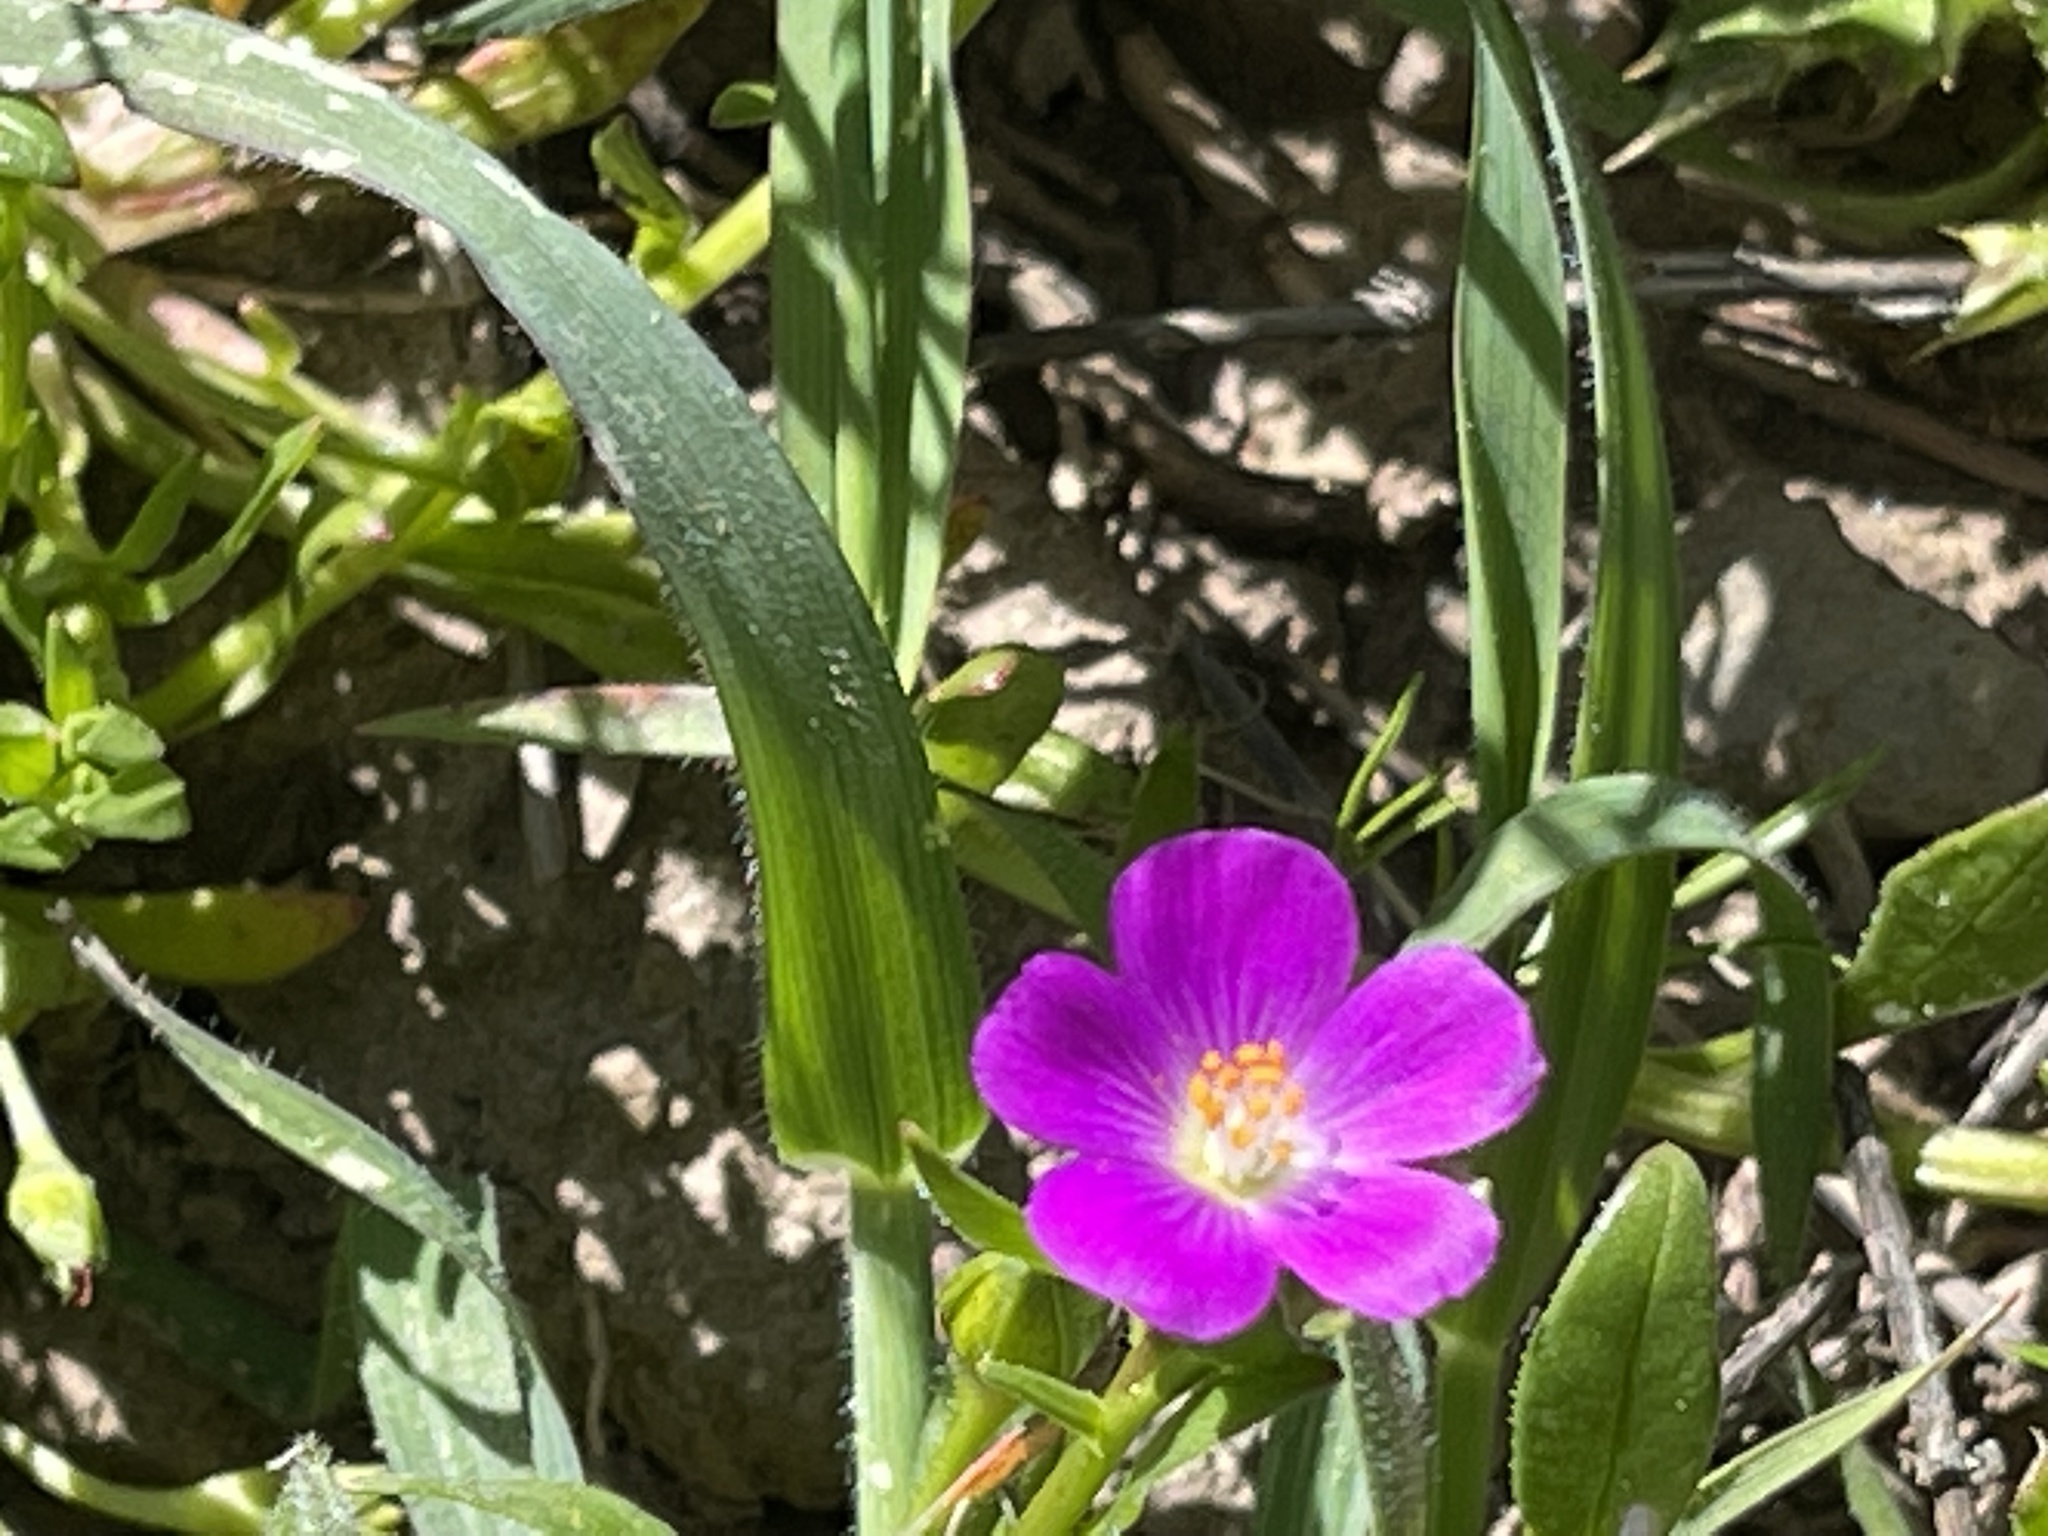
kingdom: Plantae
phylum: Tracheophyta
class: Magnoliopsida
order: Caryophyllales
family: Montiaceae
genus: Calandrinia
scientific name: Calandrinia menziesii
